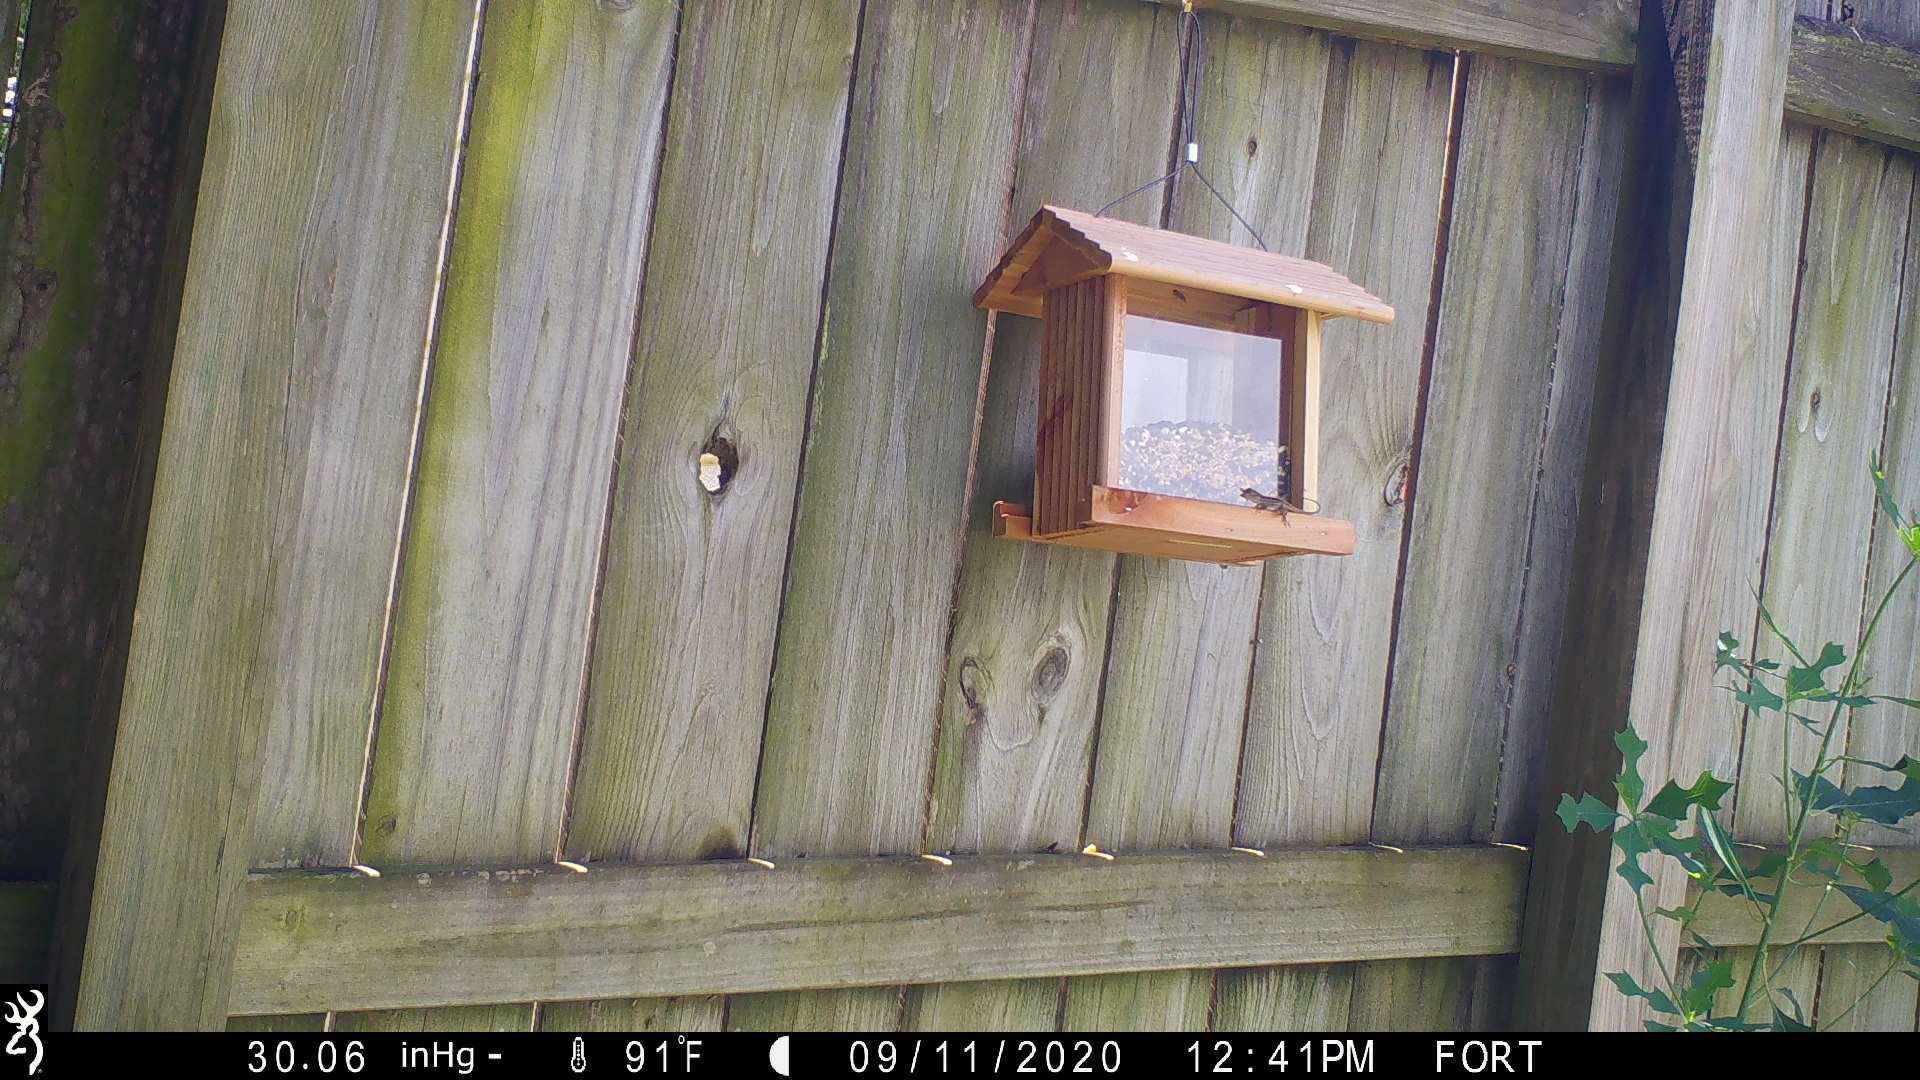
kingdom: Animalia
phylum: Chordata
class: Squamata
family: Dactyloidae
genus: Anolis
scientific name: Anolis sagrei
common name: Brown anole
